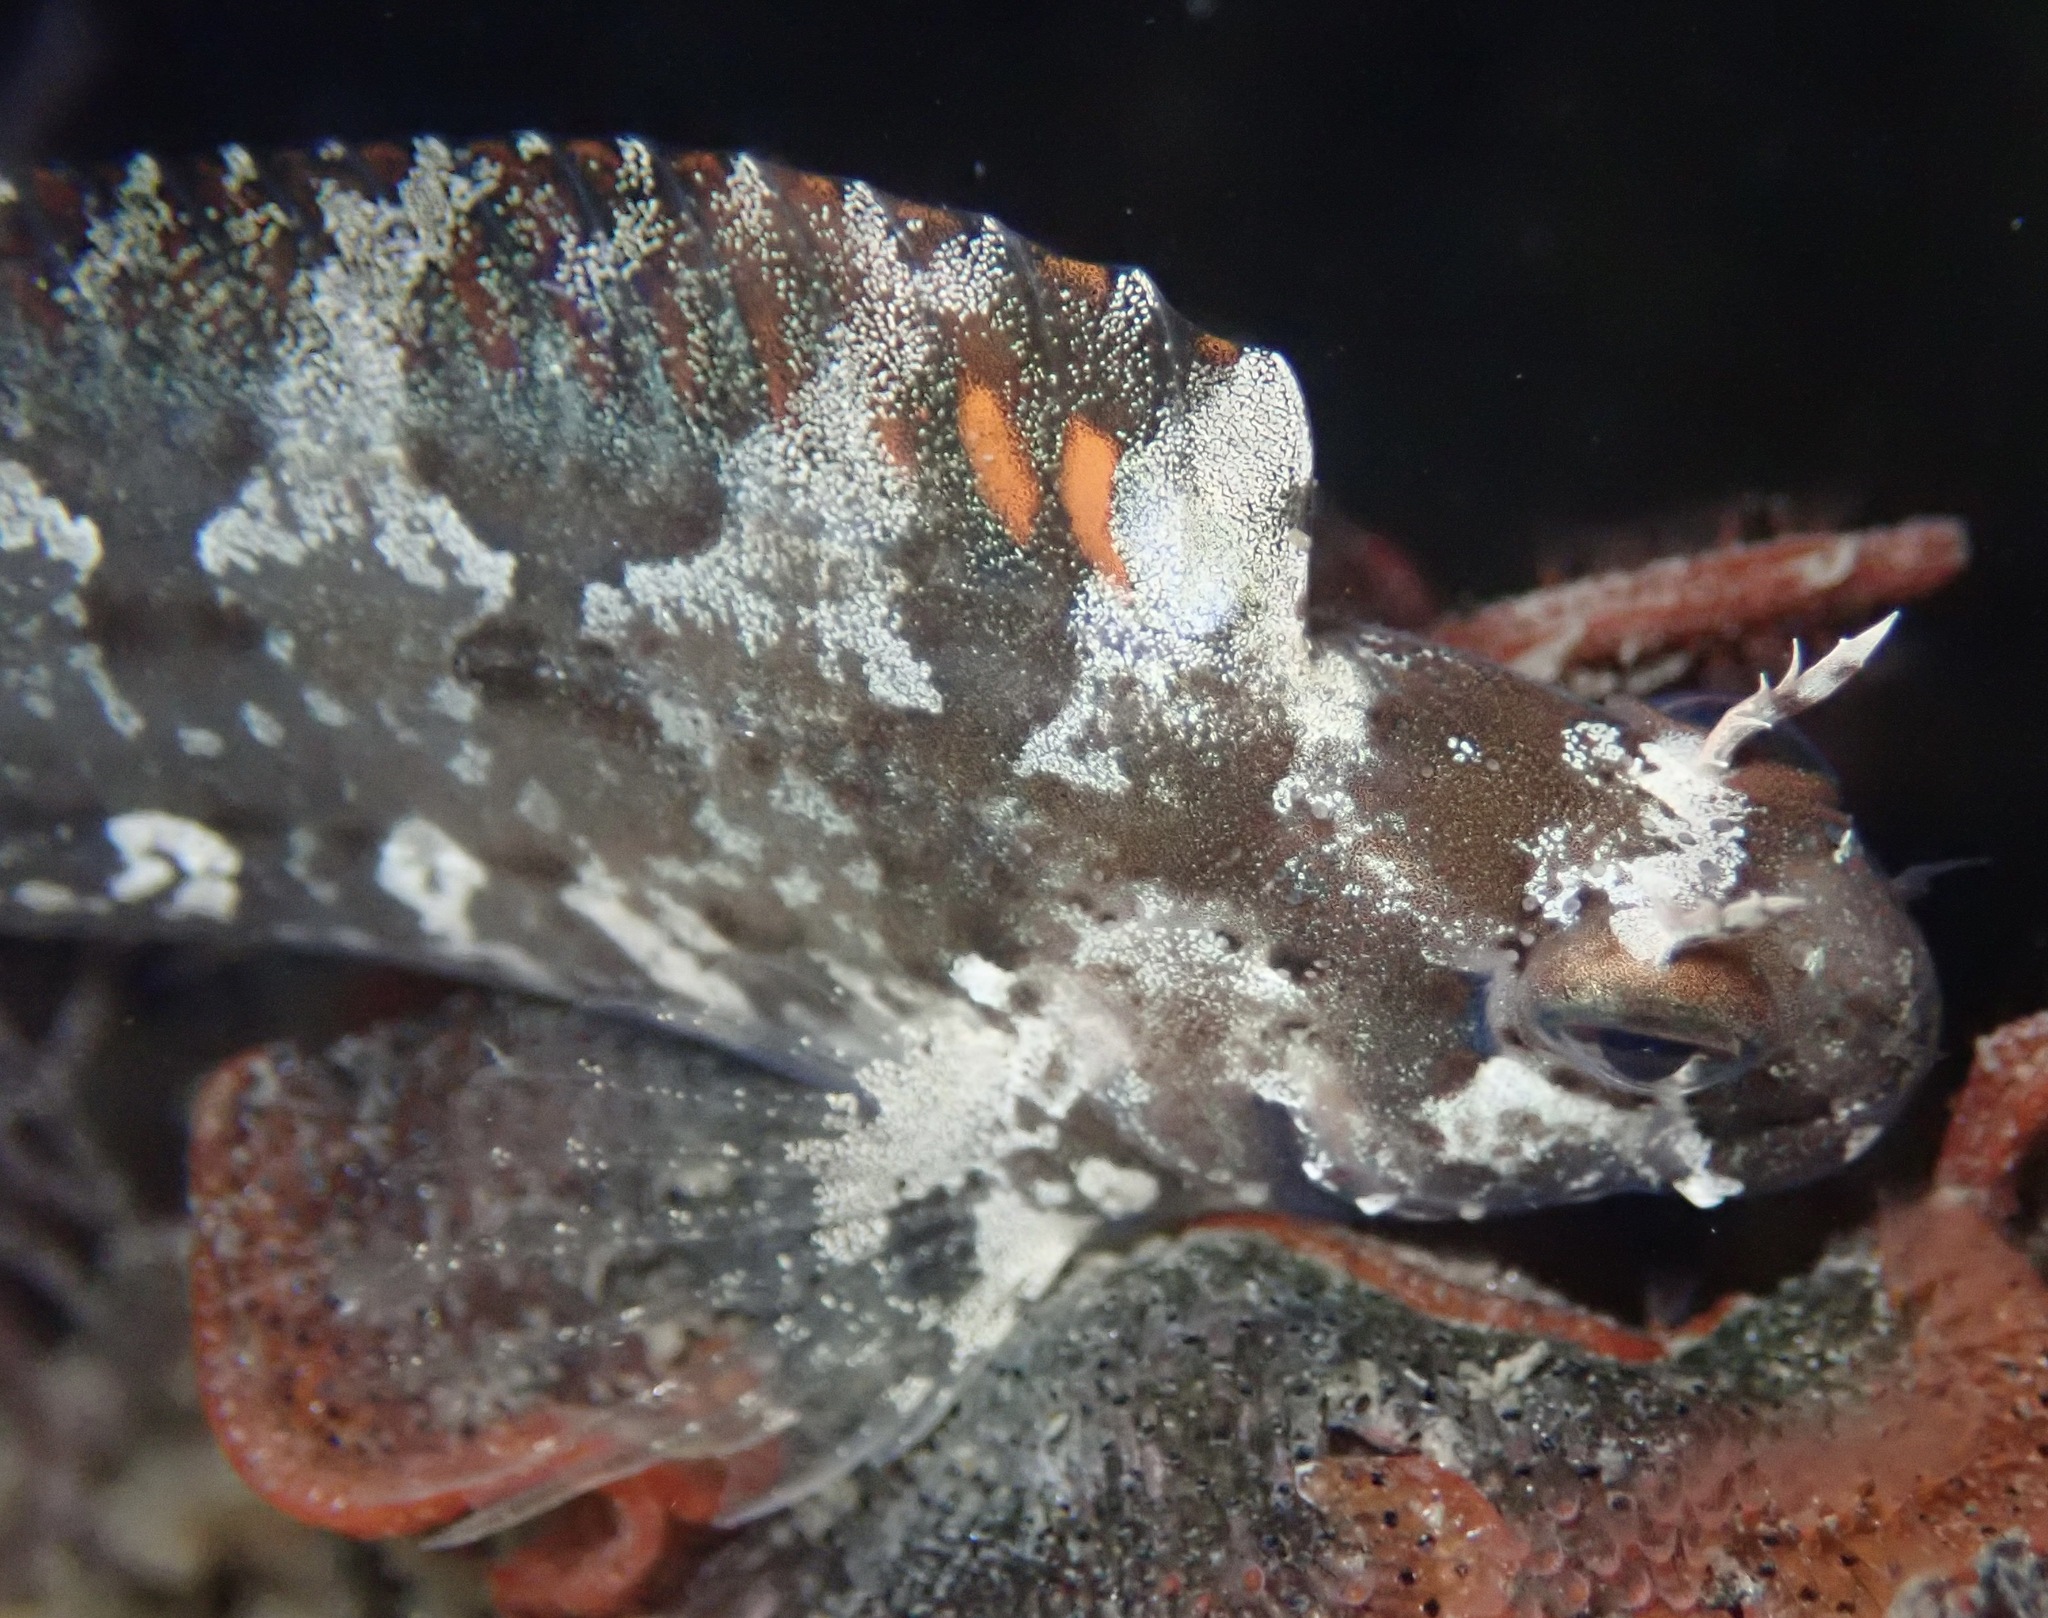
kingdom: Animalia
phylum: Chordata
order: Perciformes
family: Blenniidae
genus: Hypsoblennius
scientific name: Hypsoblennius gentilis
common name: Bay blenny
